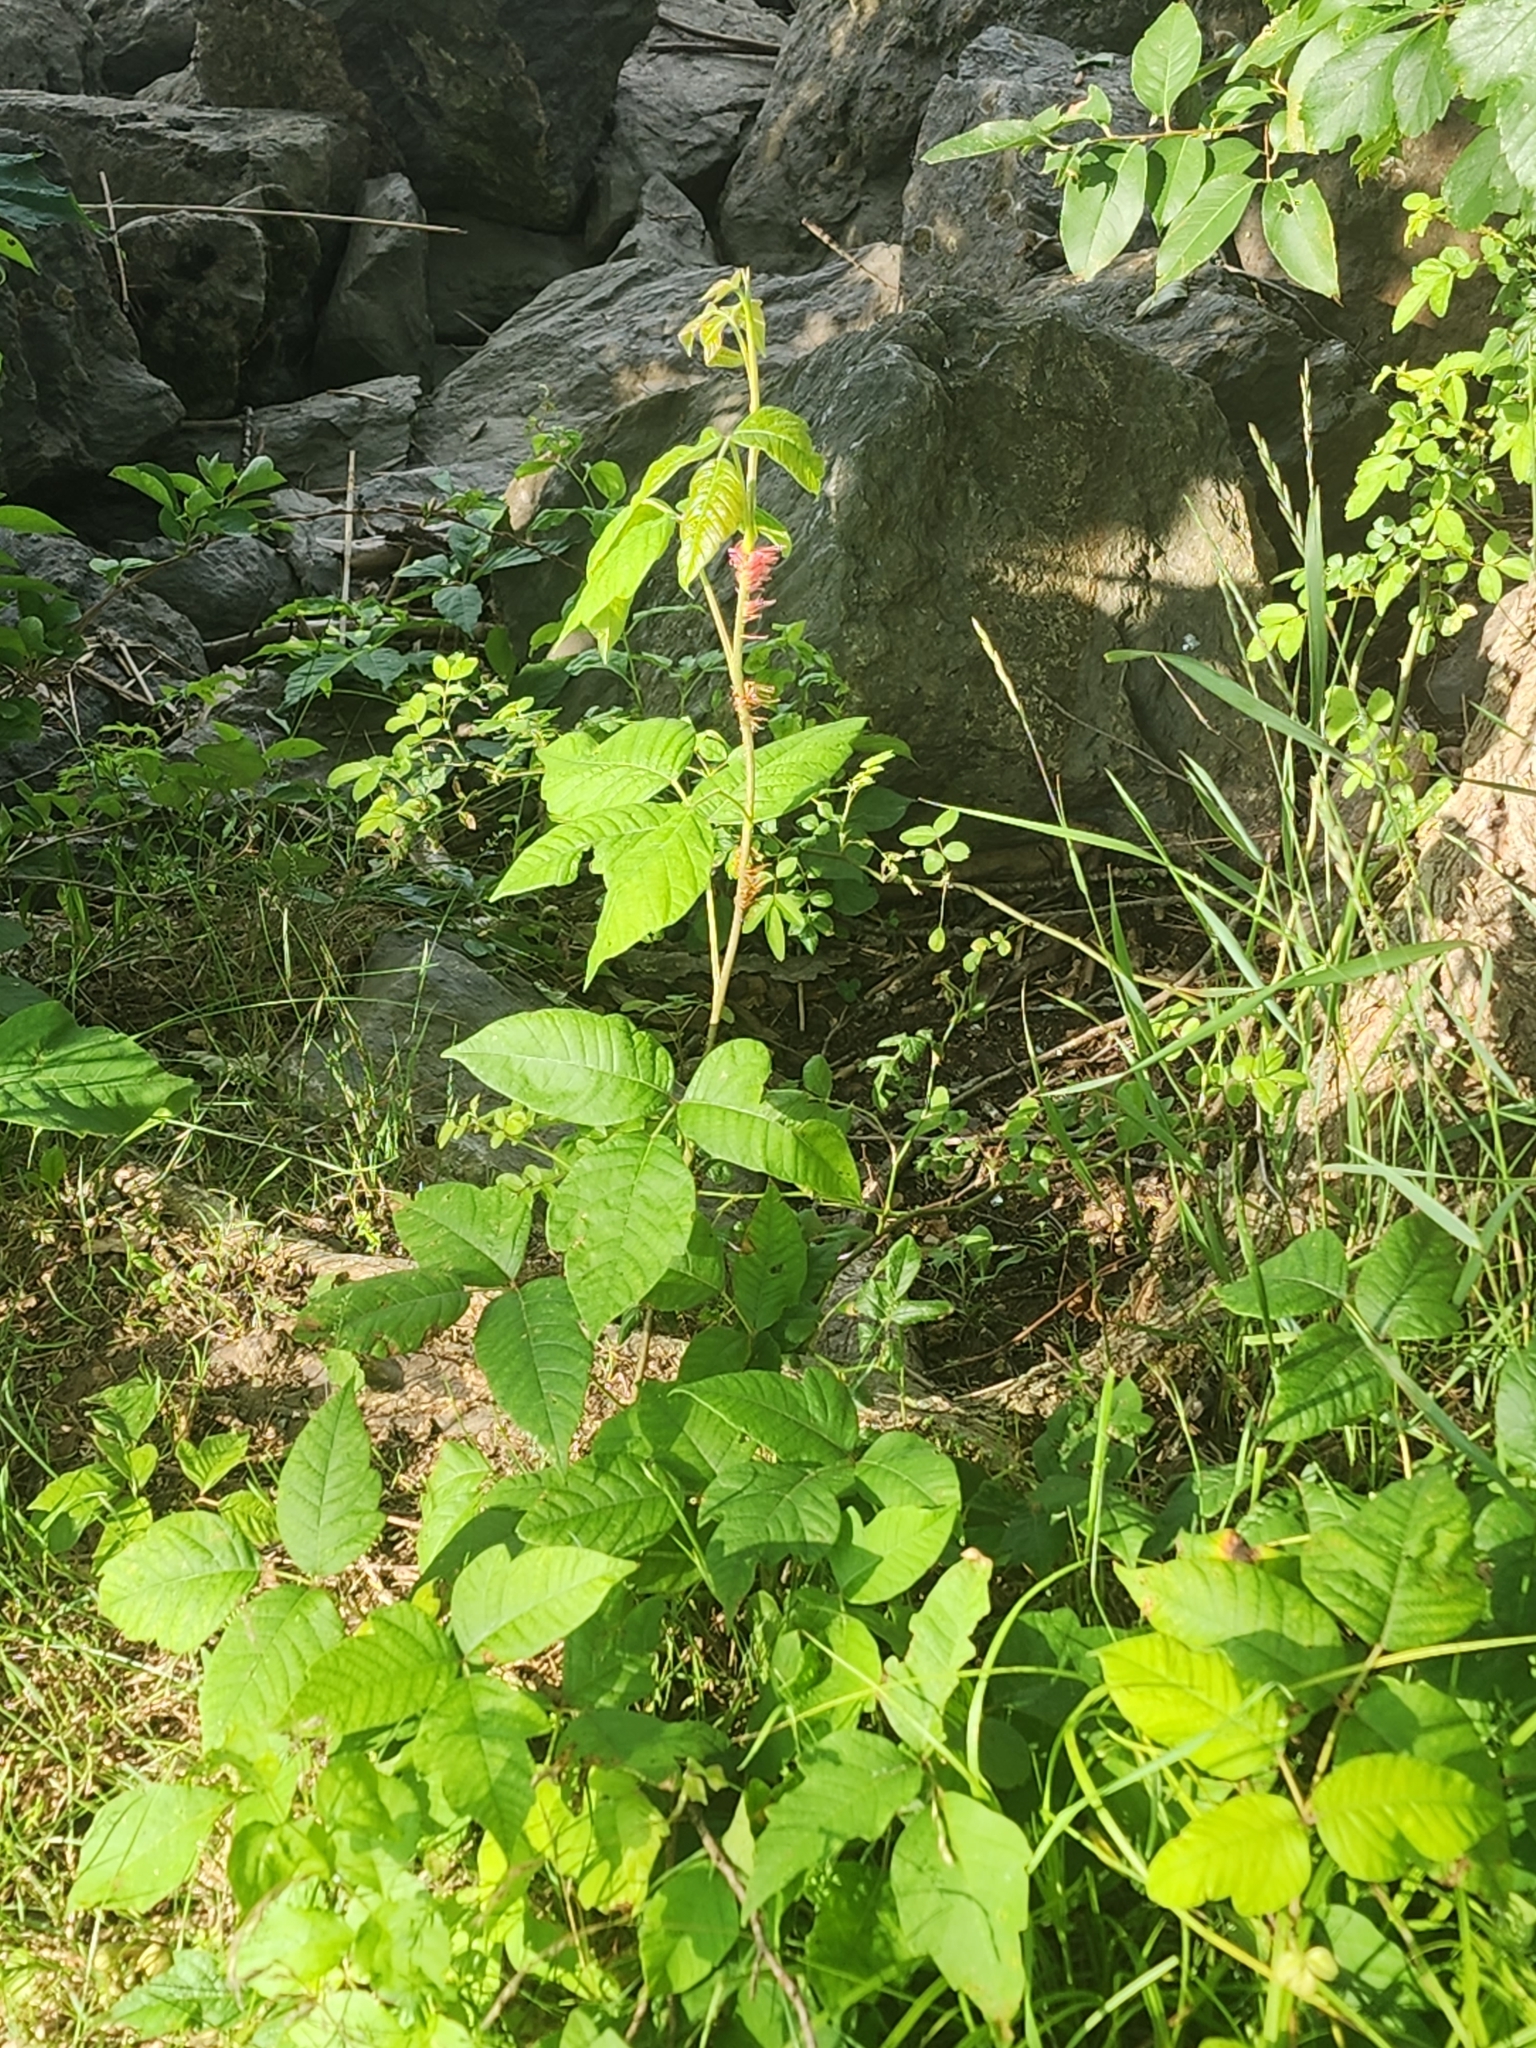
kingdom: Plantae
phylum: Tracheophyta
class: Magnoliopsida
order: Sapindales
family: Anacardiaceae
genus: Toxicodendron
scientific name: Toxicodendron radicans
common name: Poison ivy
